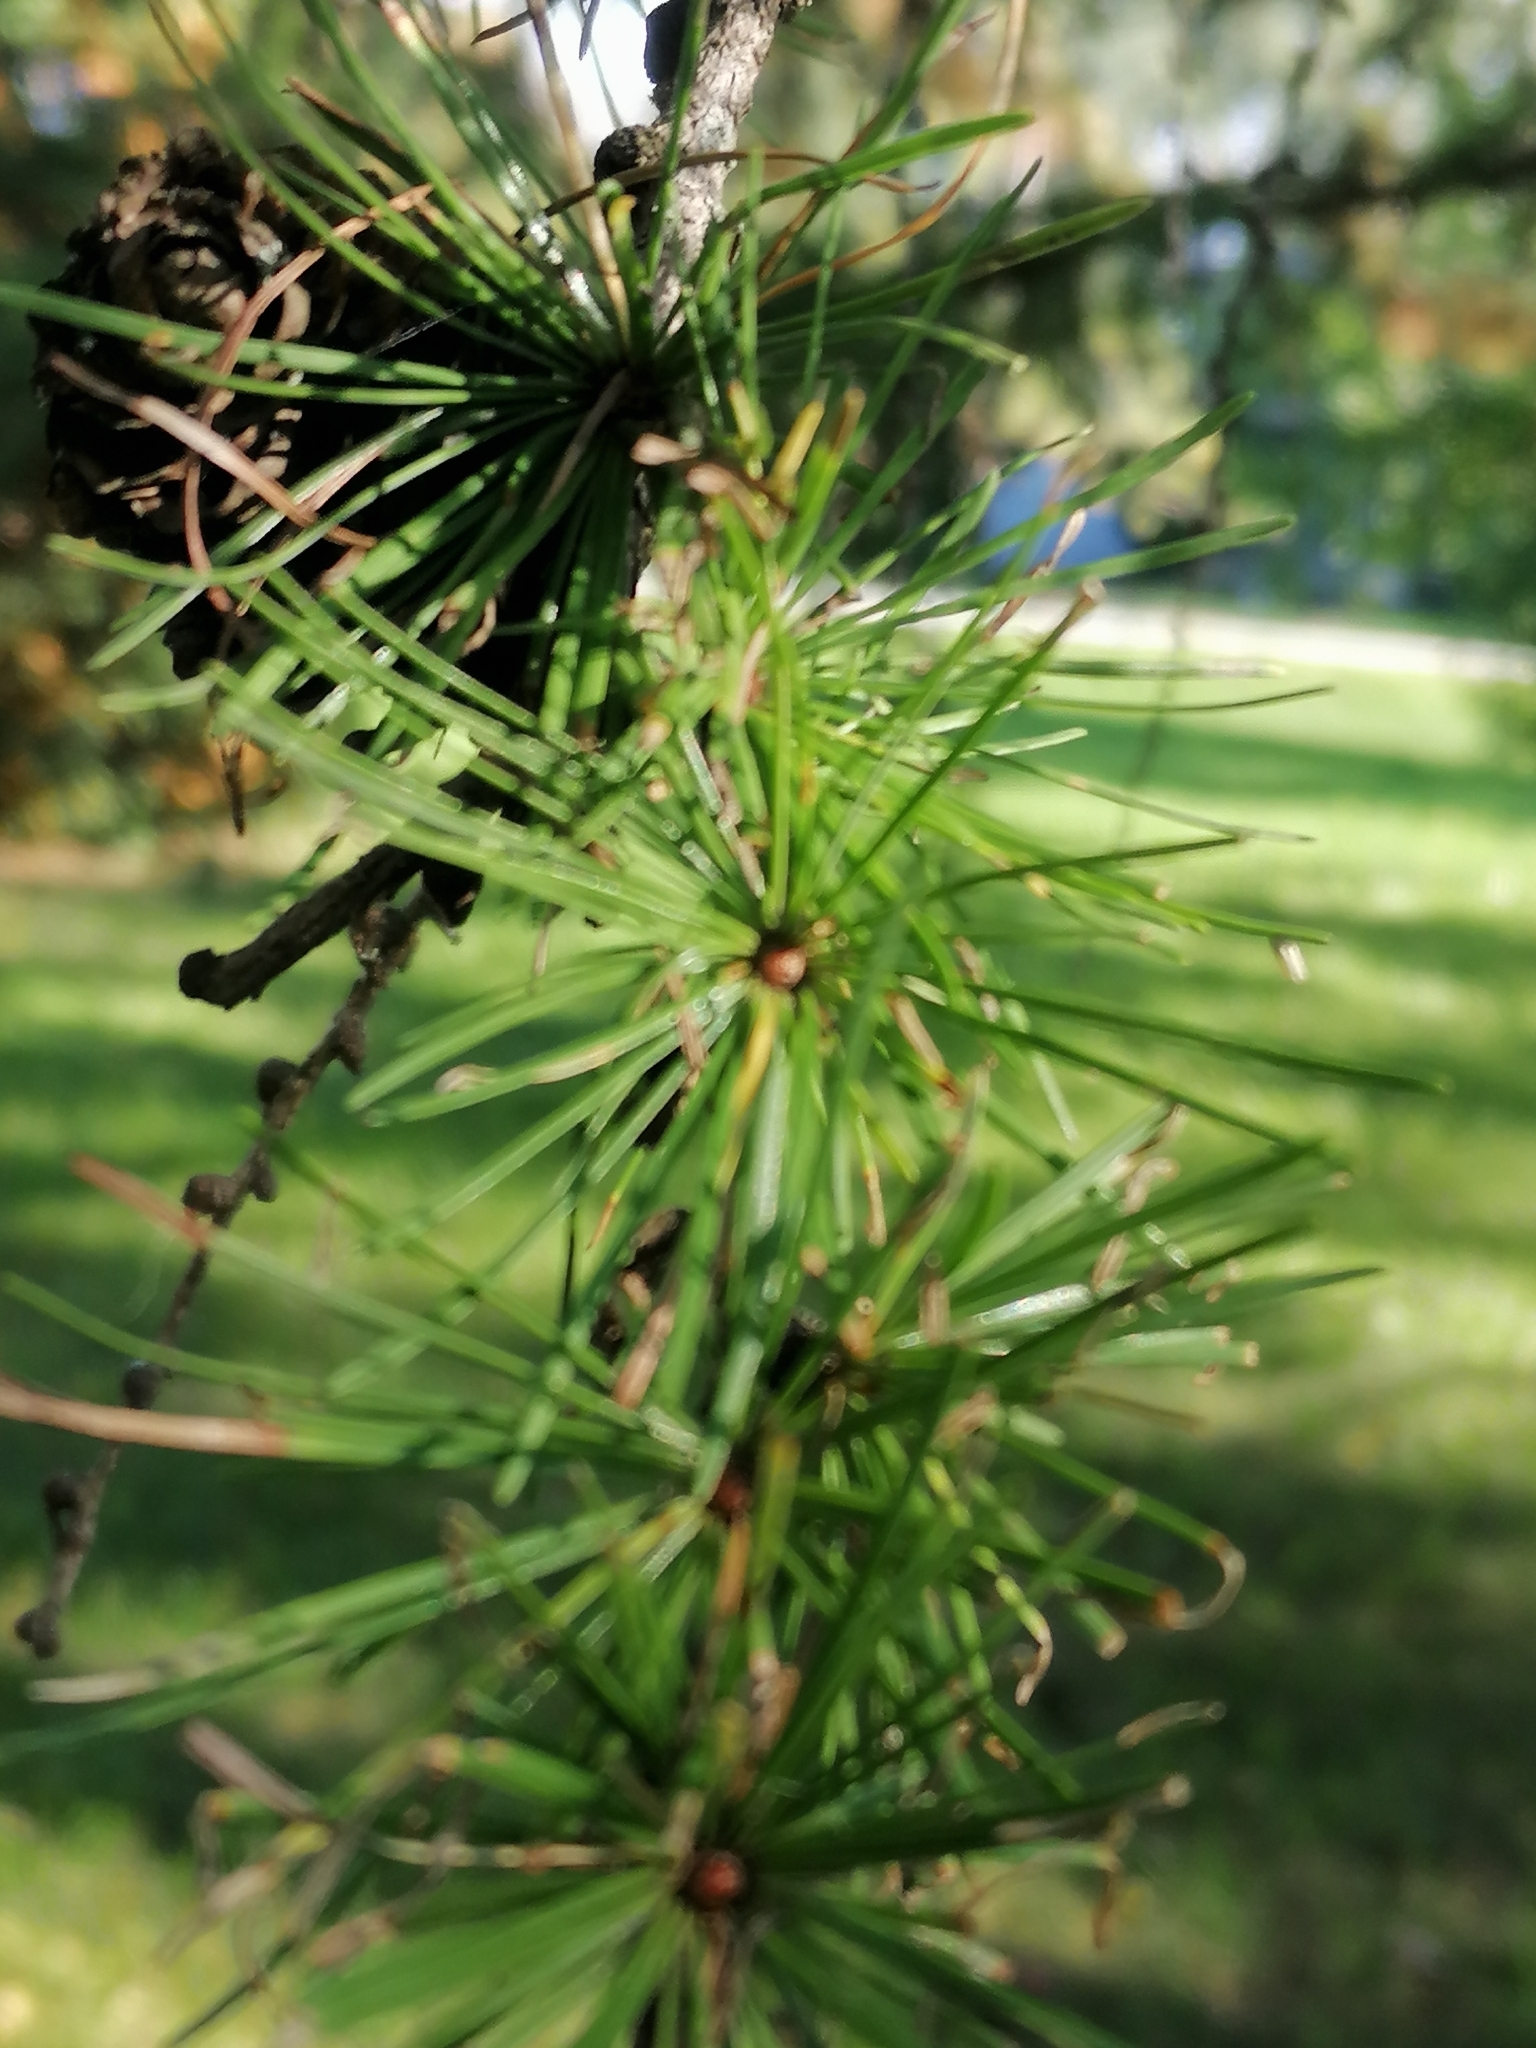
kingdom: Plantae
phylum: Tracheophyta
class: Pinopsida
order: Pinales
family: Pinaceae
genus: Larix
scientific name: Larix decidua
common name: European larch
